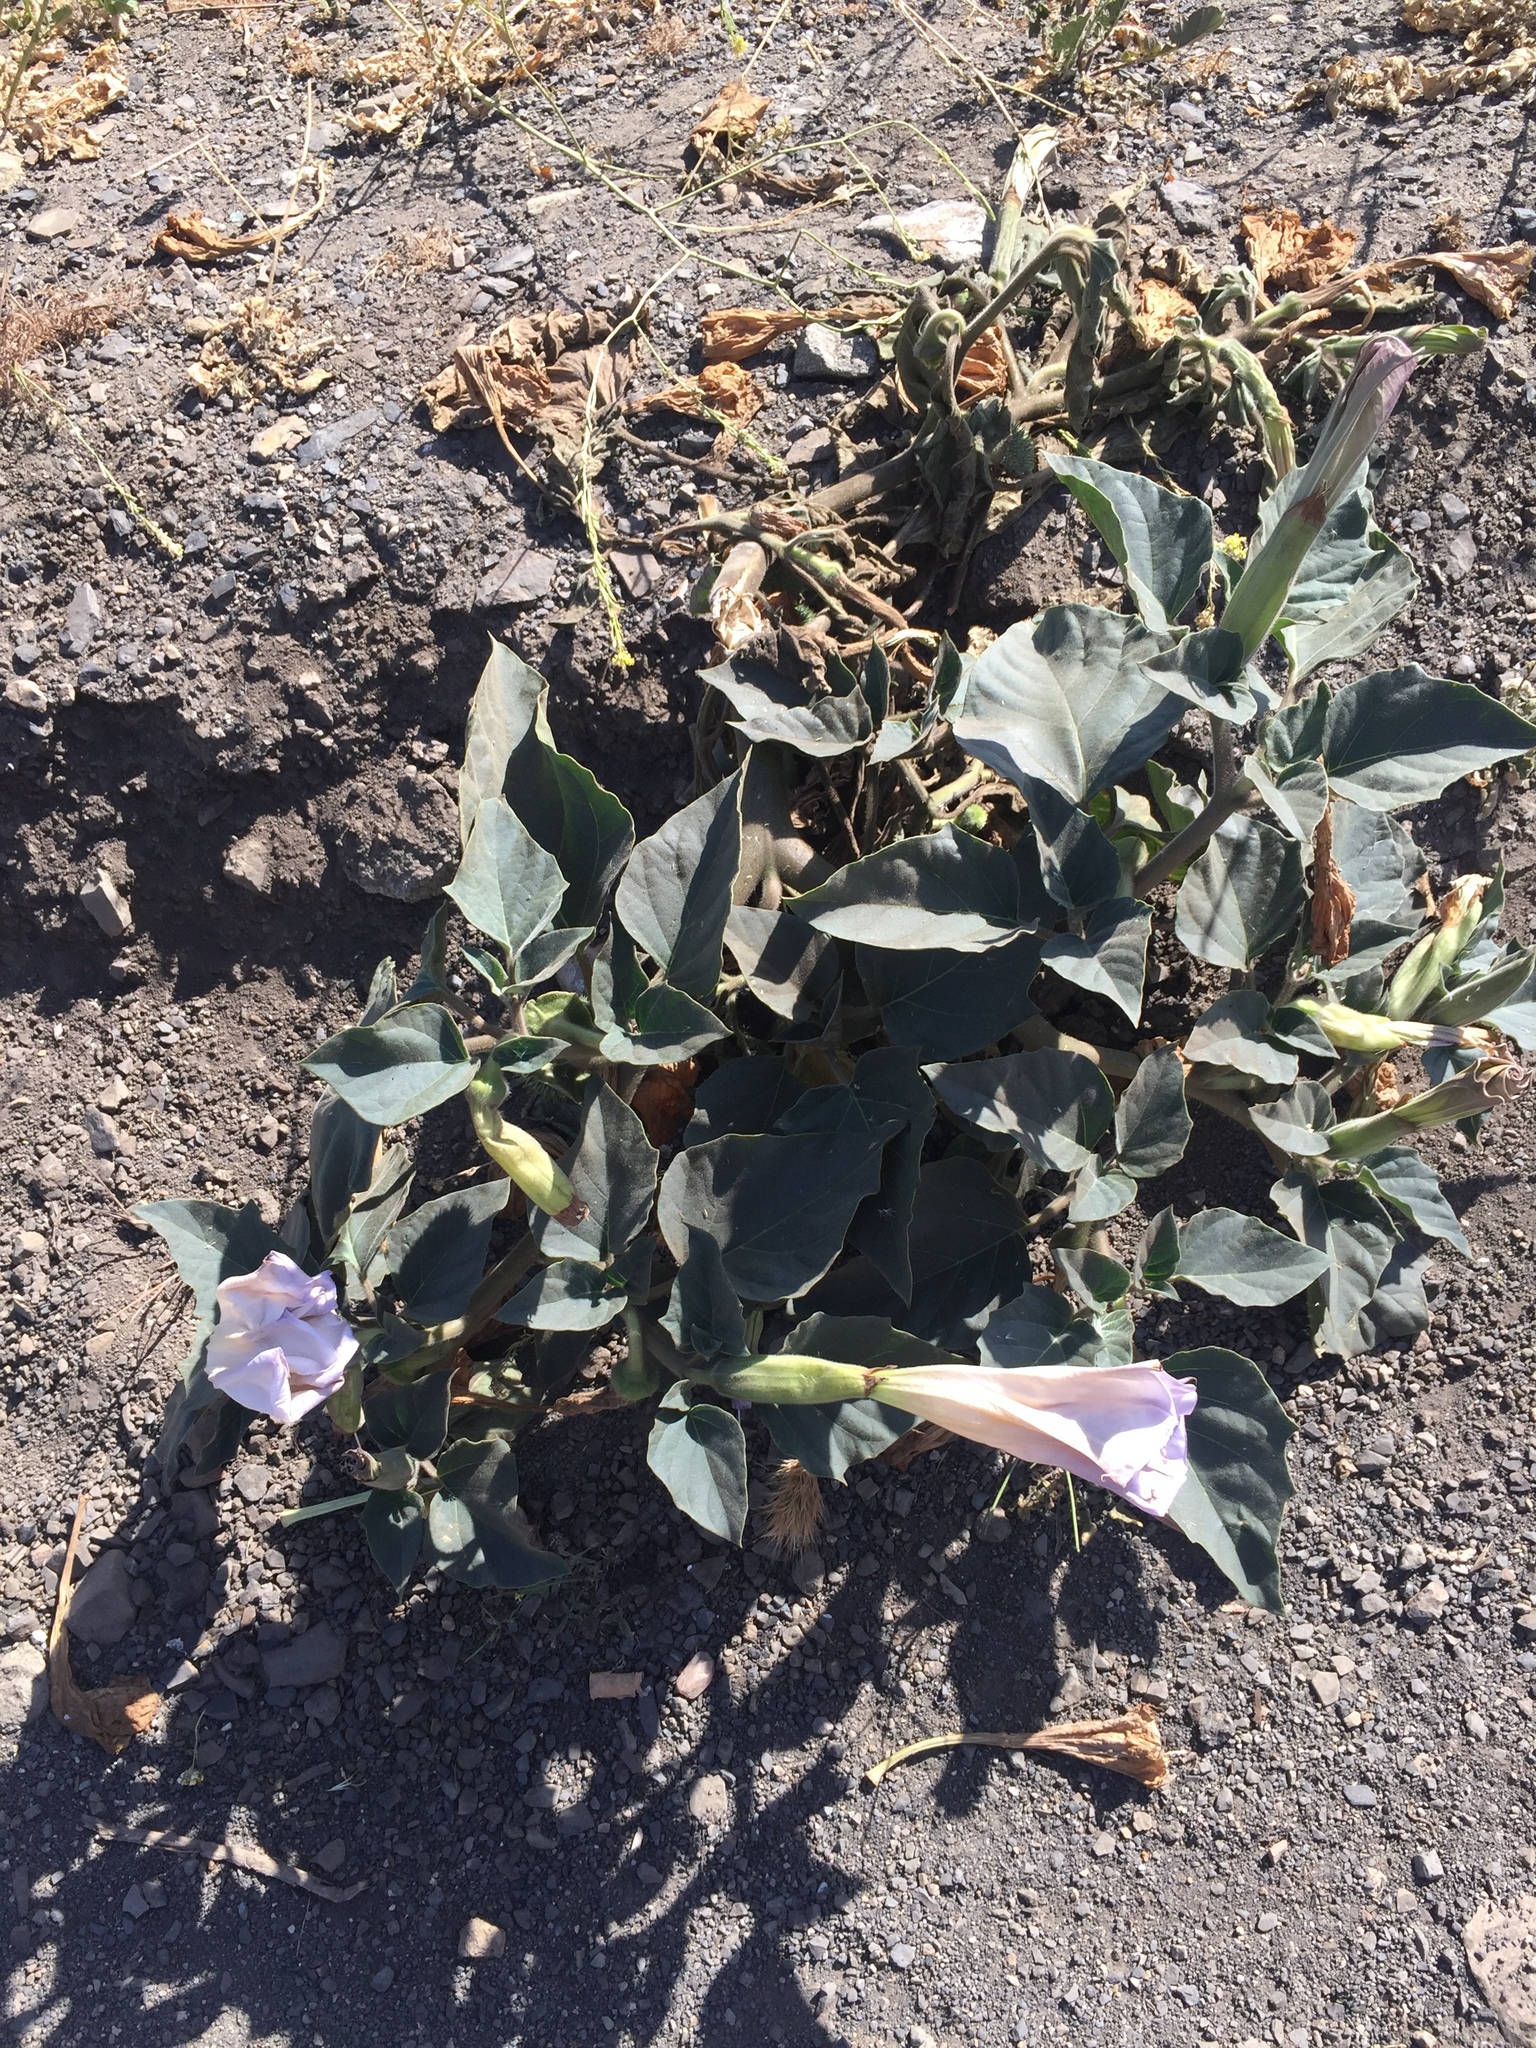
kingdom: Plantae
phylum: Tracheophyta
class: Magnoliopsida
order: Solanales
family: Solanaceae
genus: Datura
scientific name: Datura wrightii
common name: Sacred thorn-apple
